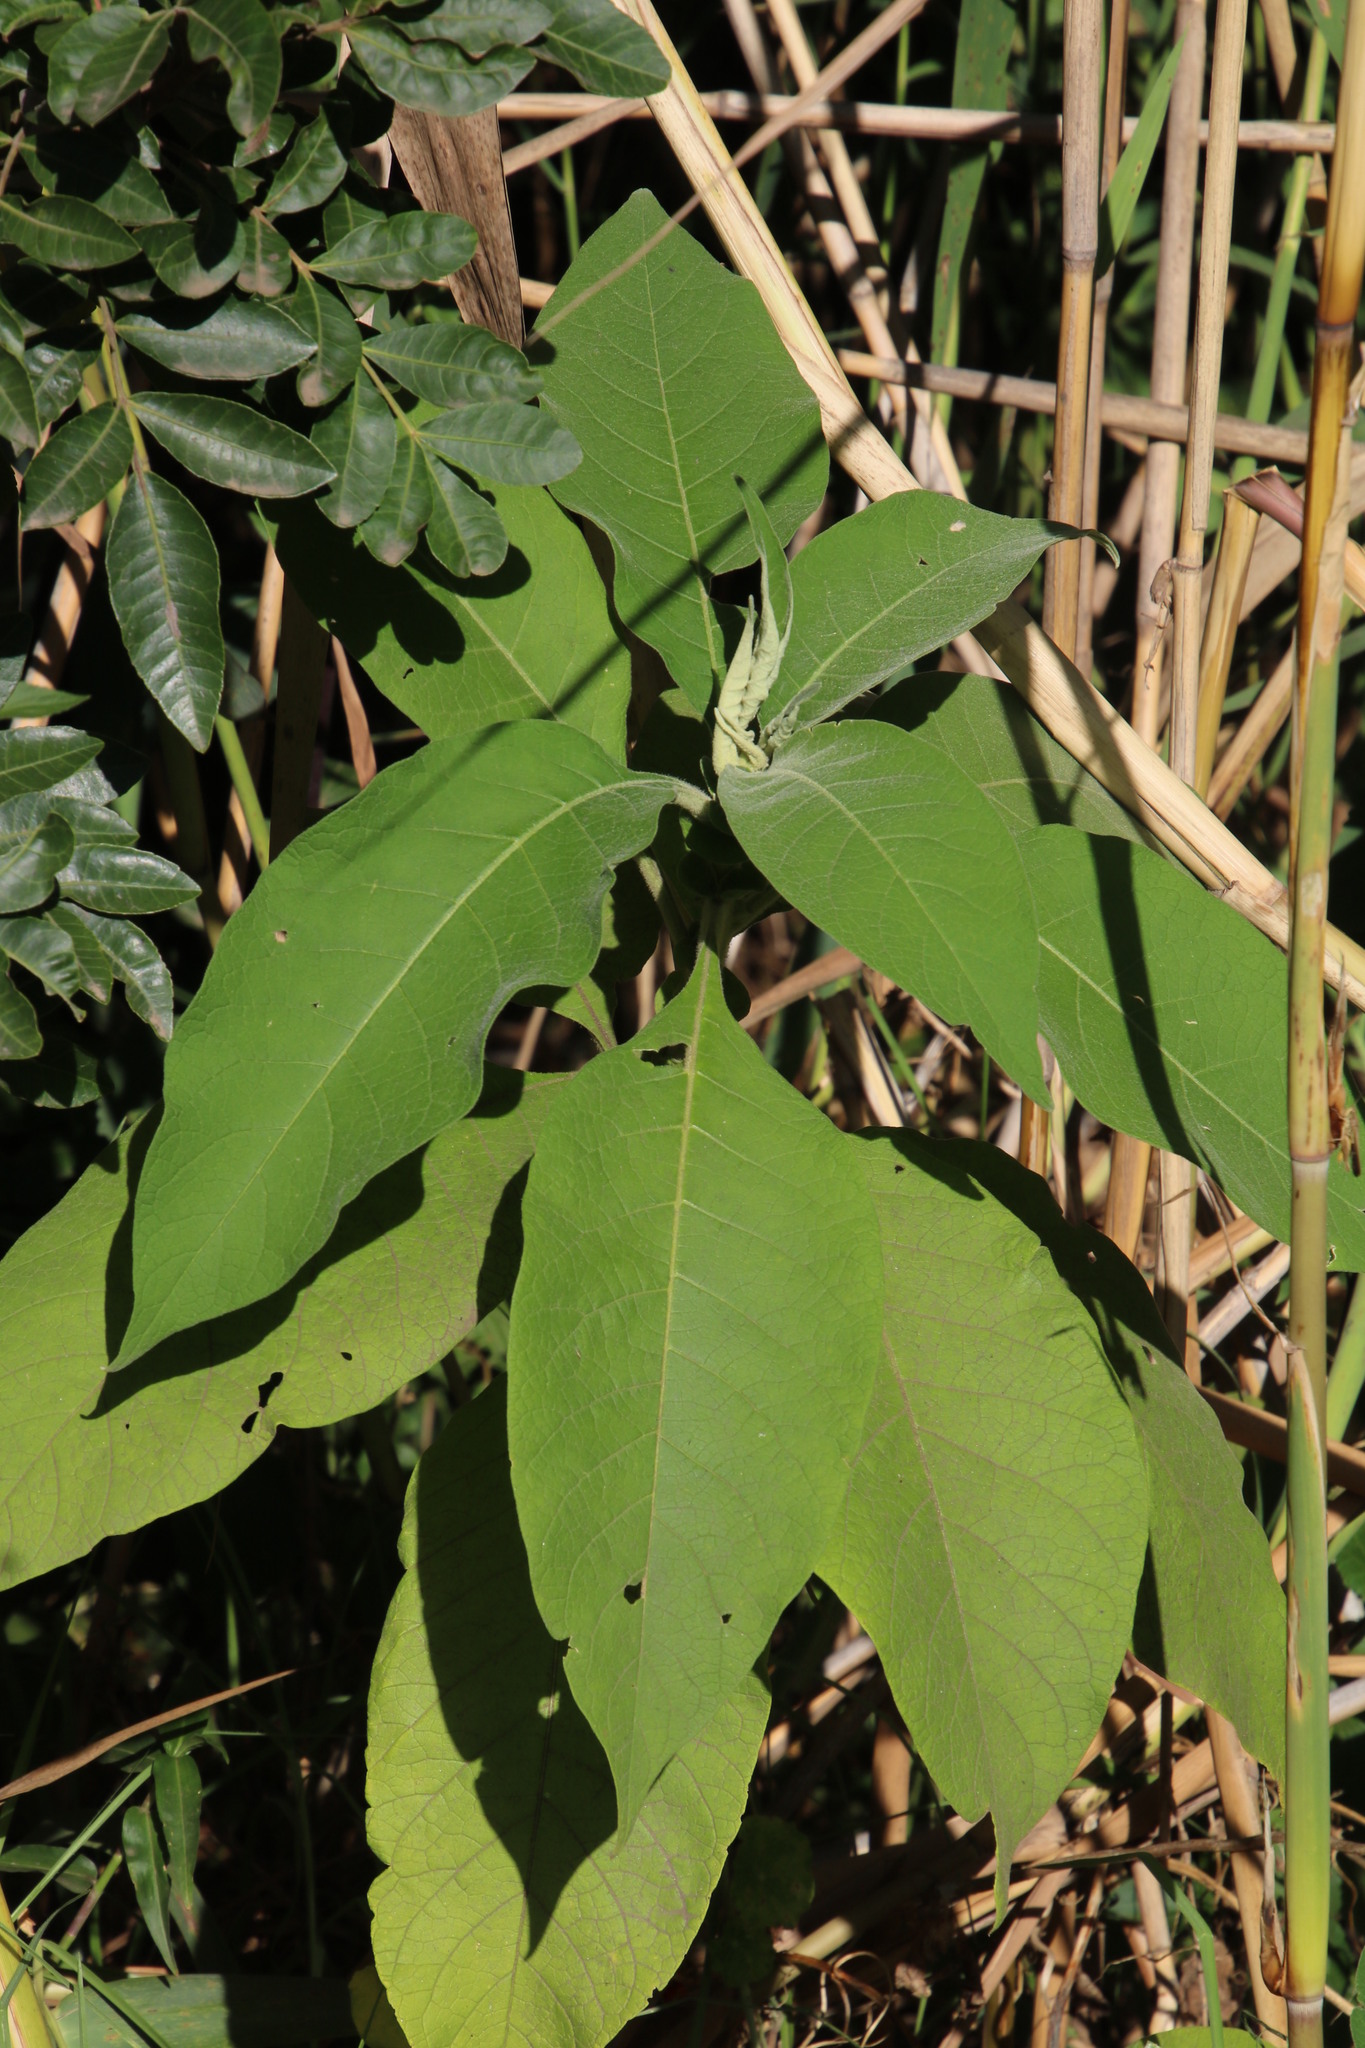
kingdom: Plantae
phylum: Tracheophyta
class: Magnoliopsida
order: Solanales
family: Solanaceae
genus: Solanum
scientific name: Solanum mauritianum
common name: Earleaf nightshade
